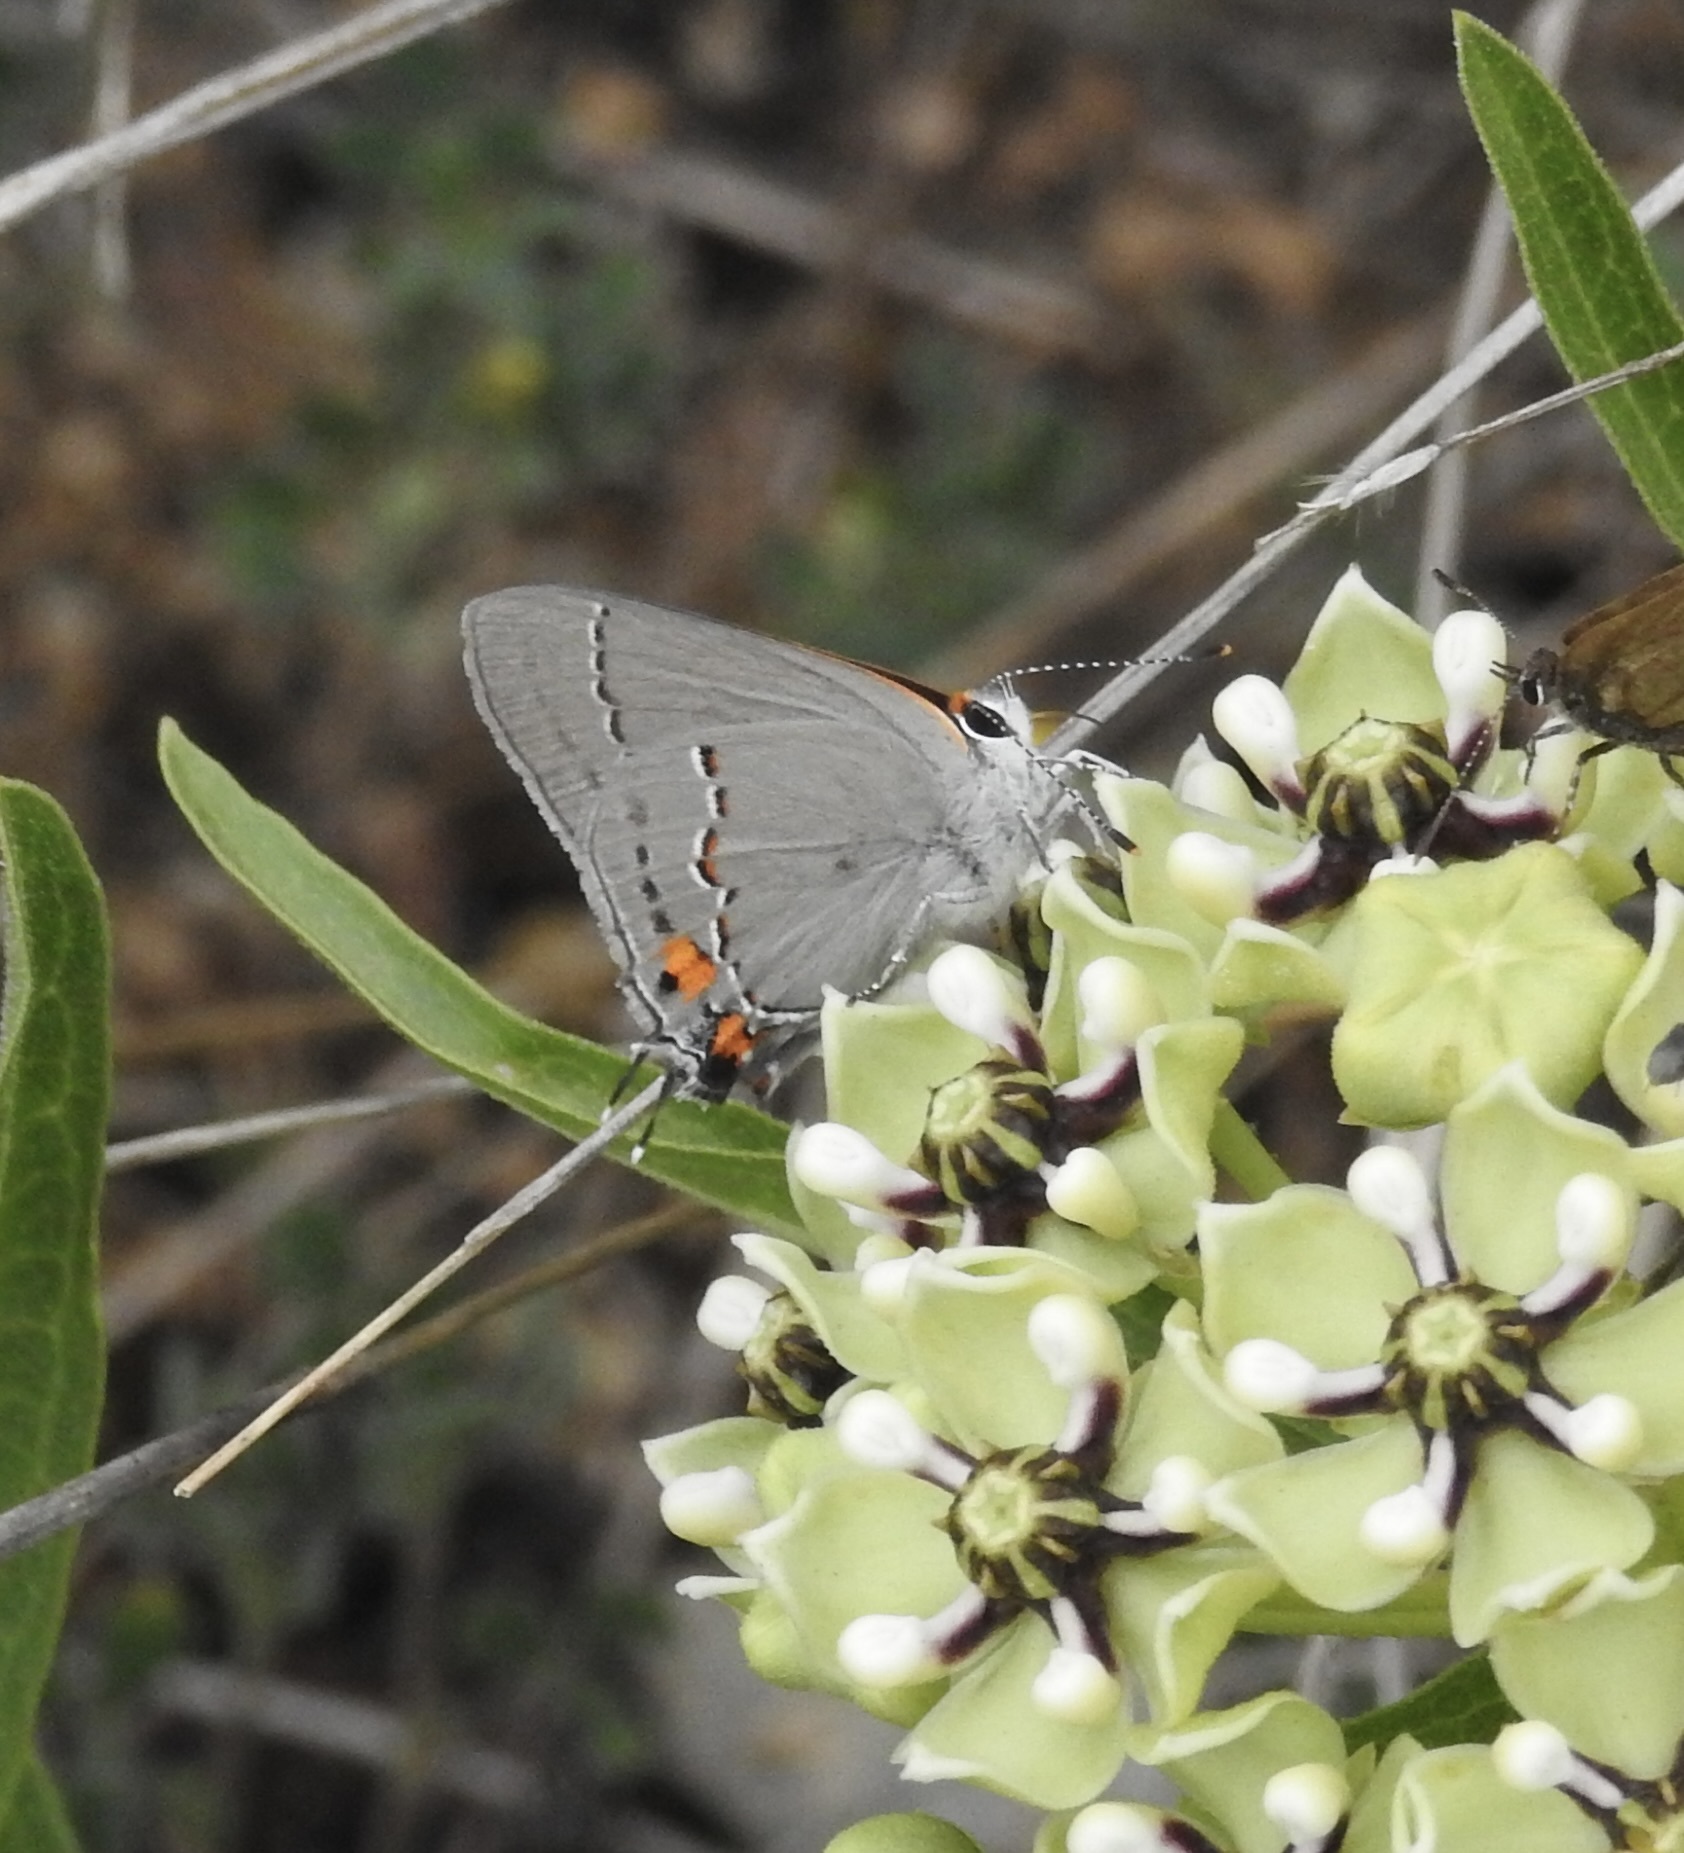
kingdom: Animalia
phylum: Arthropoda
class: Insecta
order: Lepidoptera
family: Lycaenidae
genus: Strymon
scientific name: Strymon melinus
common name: Gray hairstreak
